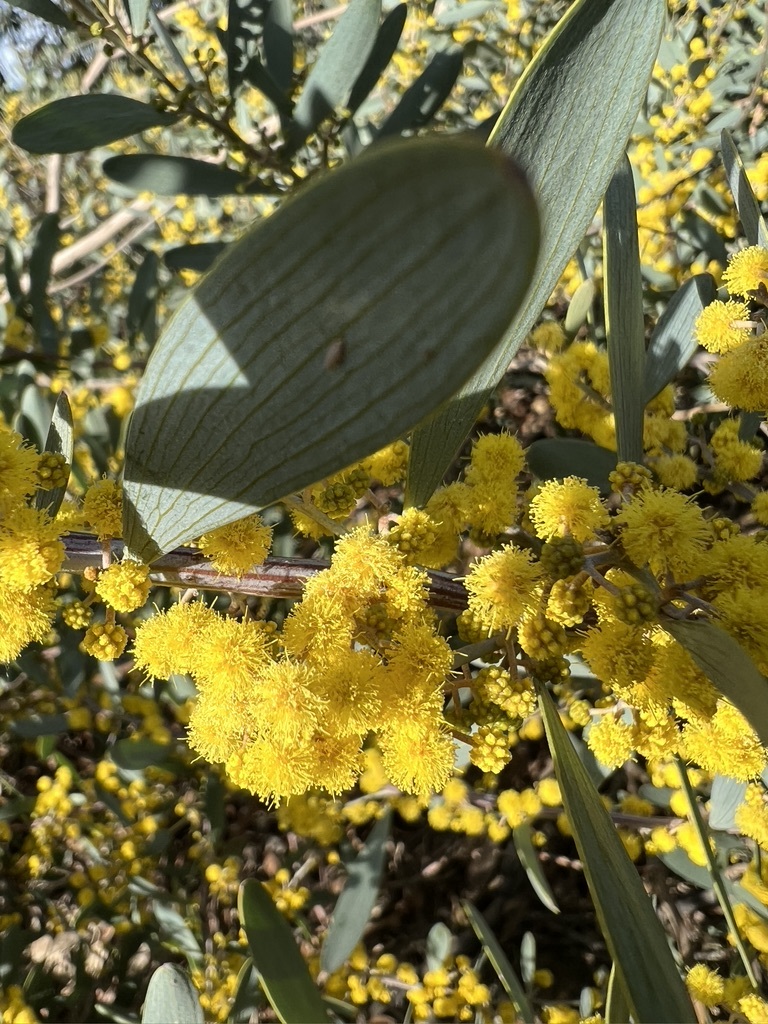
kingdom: Plantae
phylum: Tracheophyta
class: Magnoliopsida
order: Fabales
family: Fabaceae
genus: Acacia
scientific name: Acacia redolens
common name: Bank catclaw
